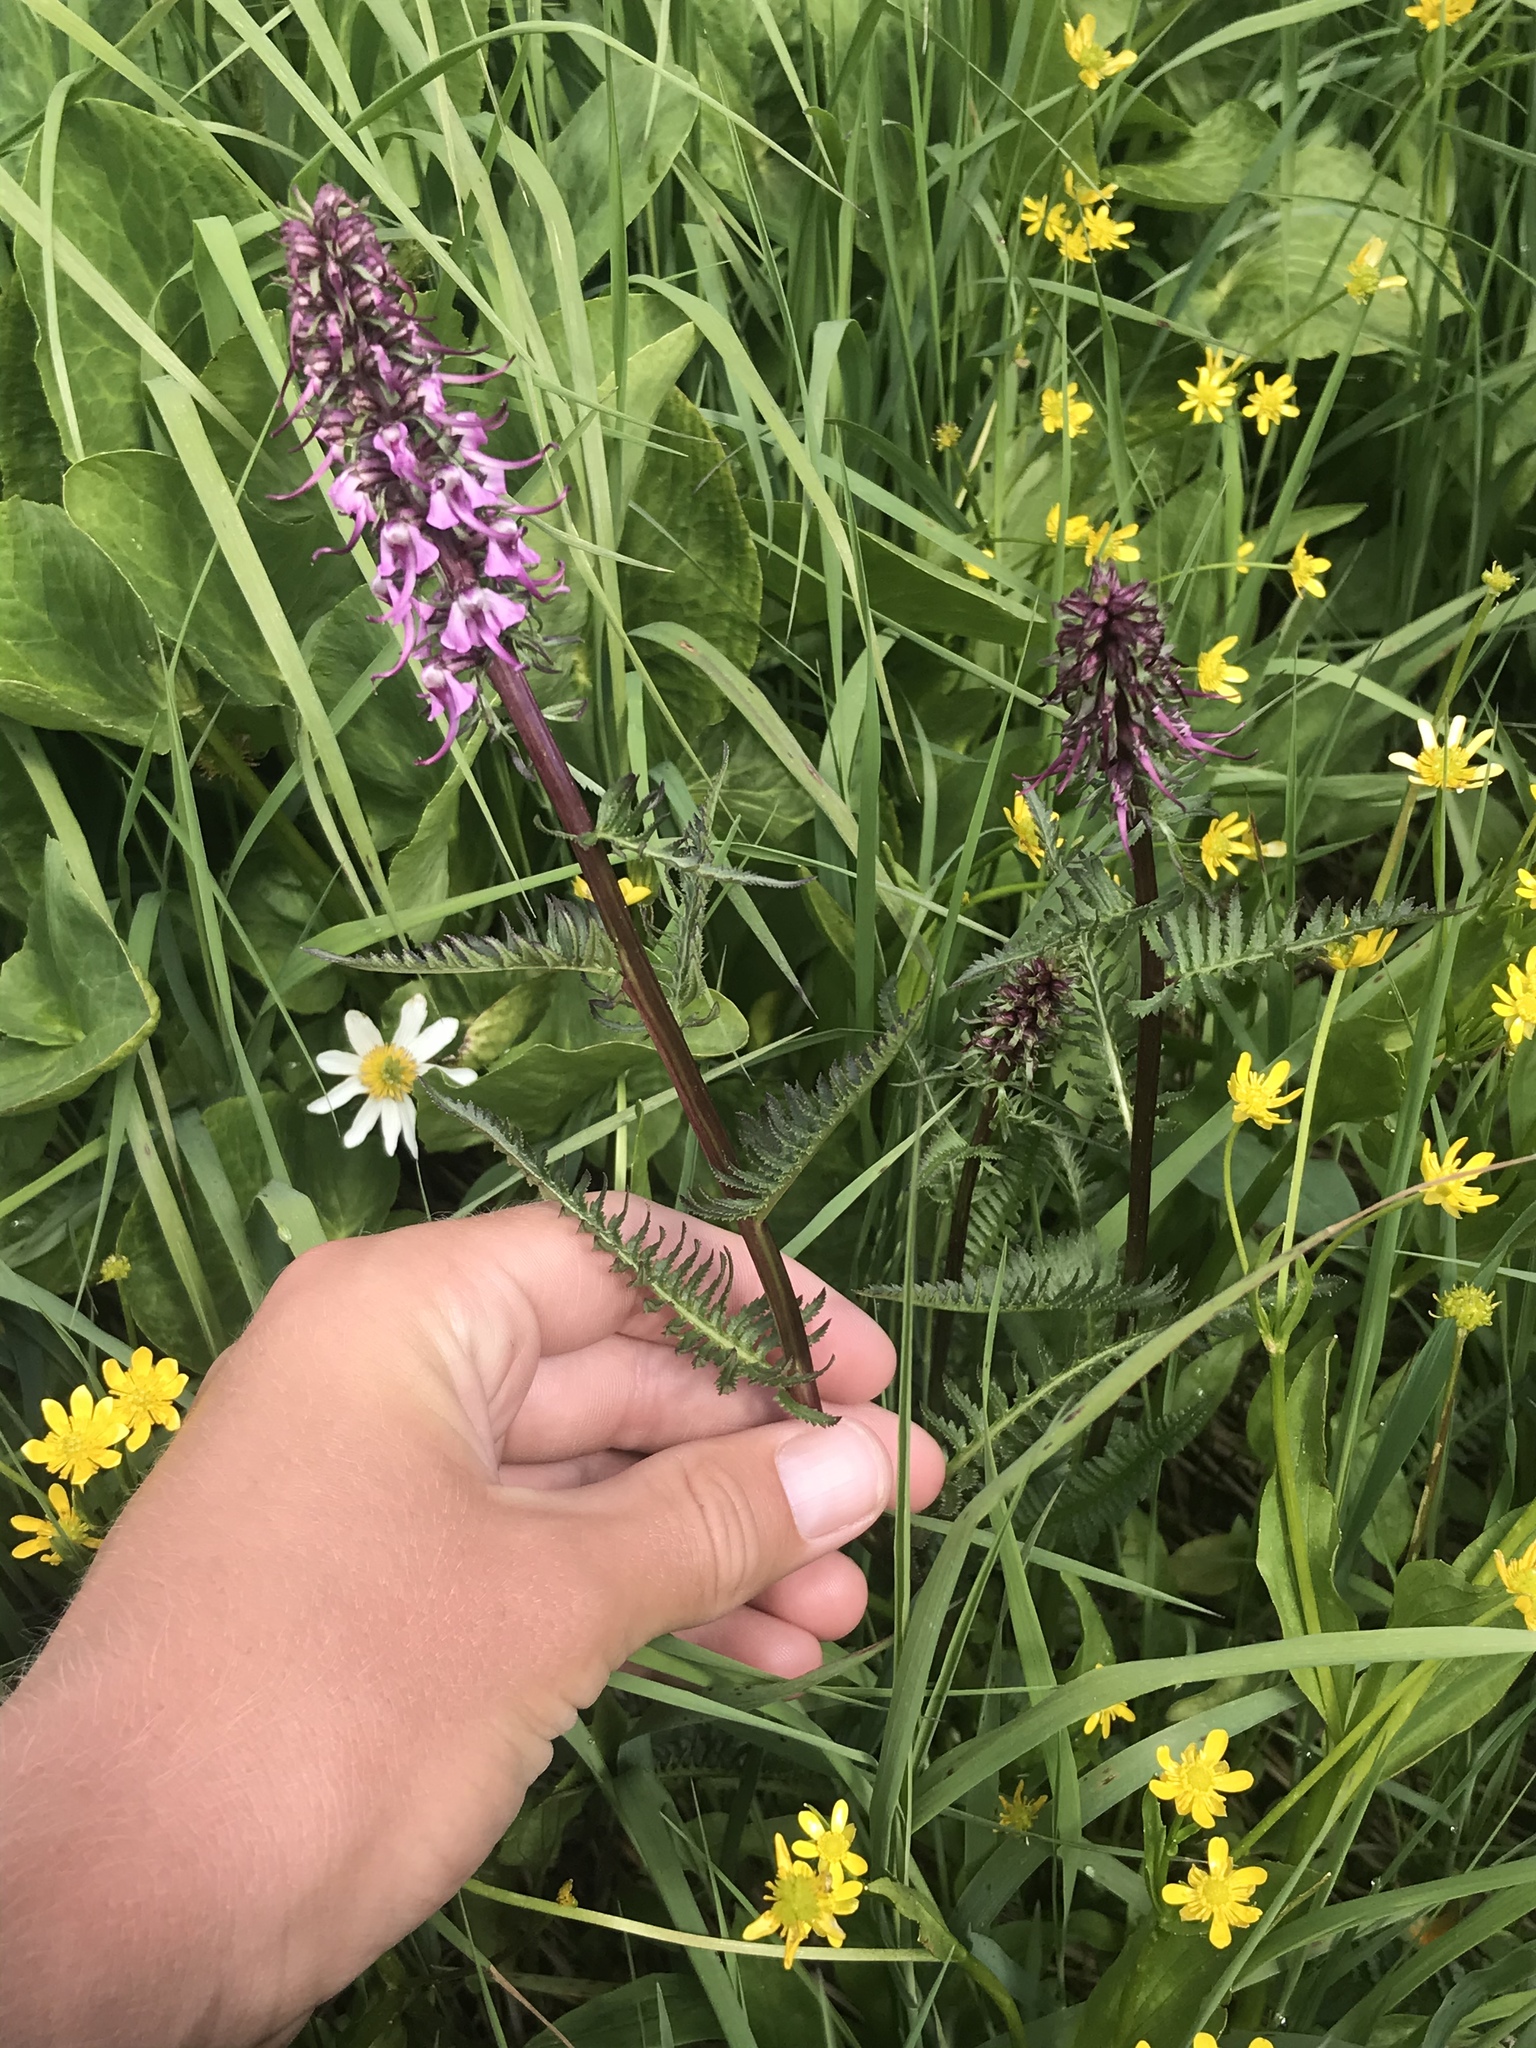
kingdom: Plantae
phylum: Tracheophyta
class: Magnoliopsida
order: Lamiales
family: Orobanchaceae
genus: Pedicularis
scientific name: Pedicularis groenlandica
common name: Elephant's-head
